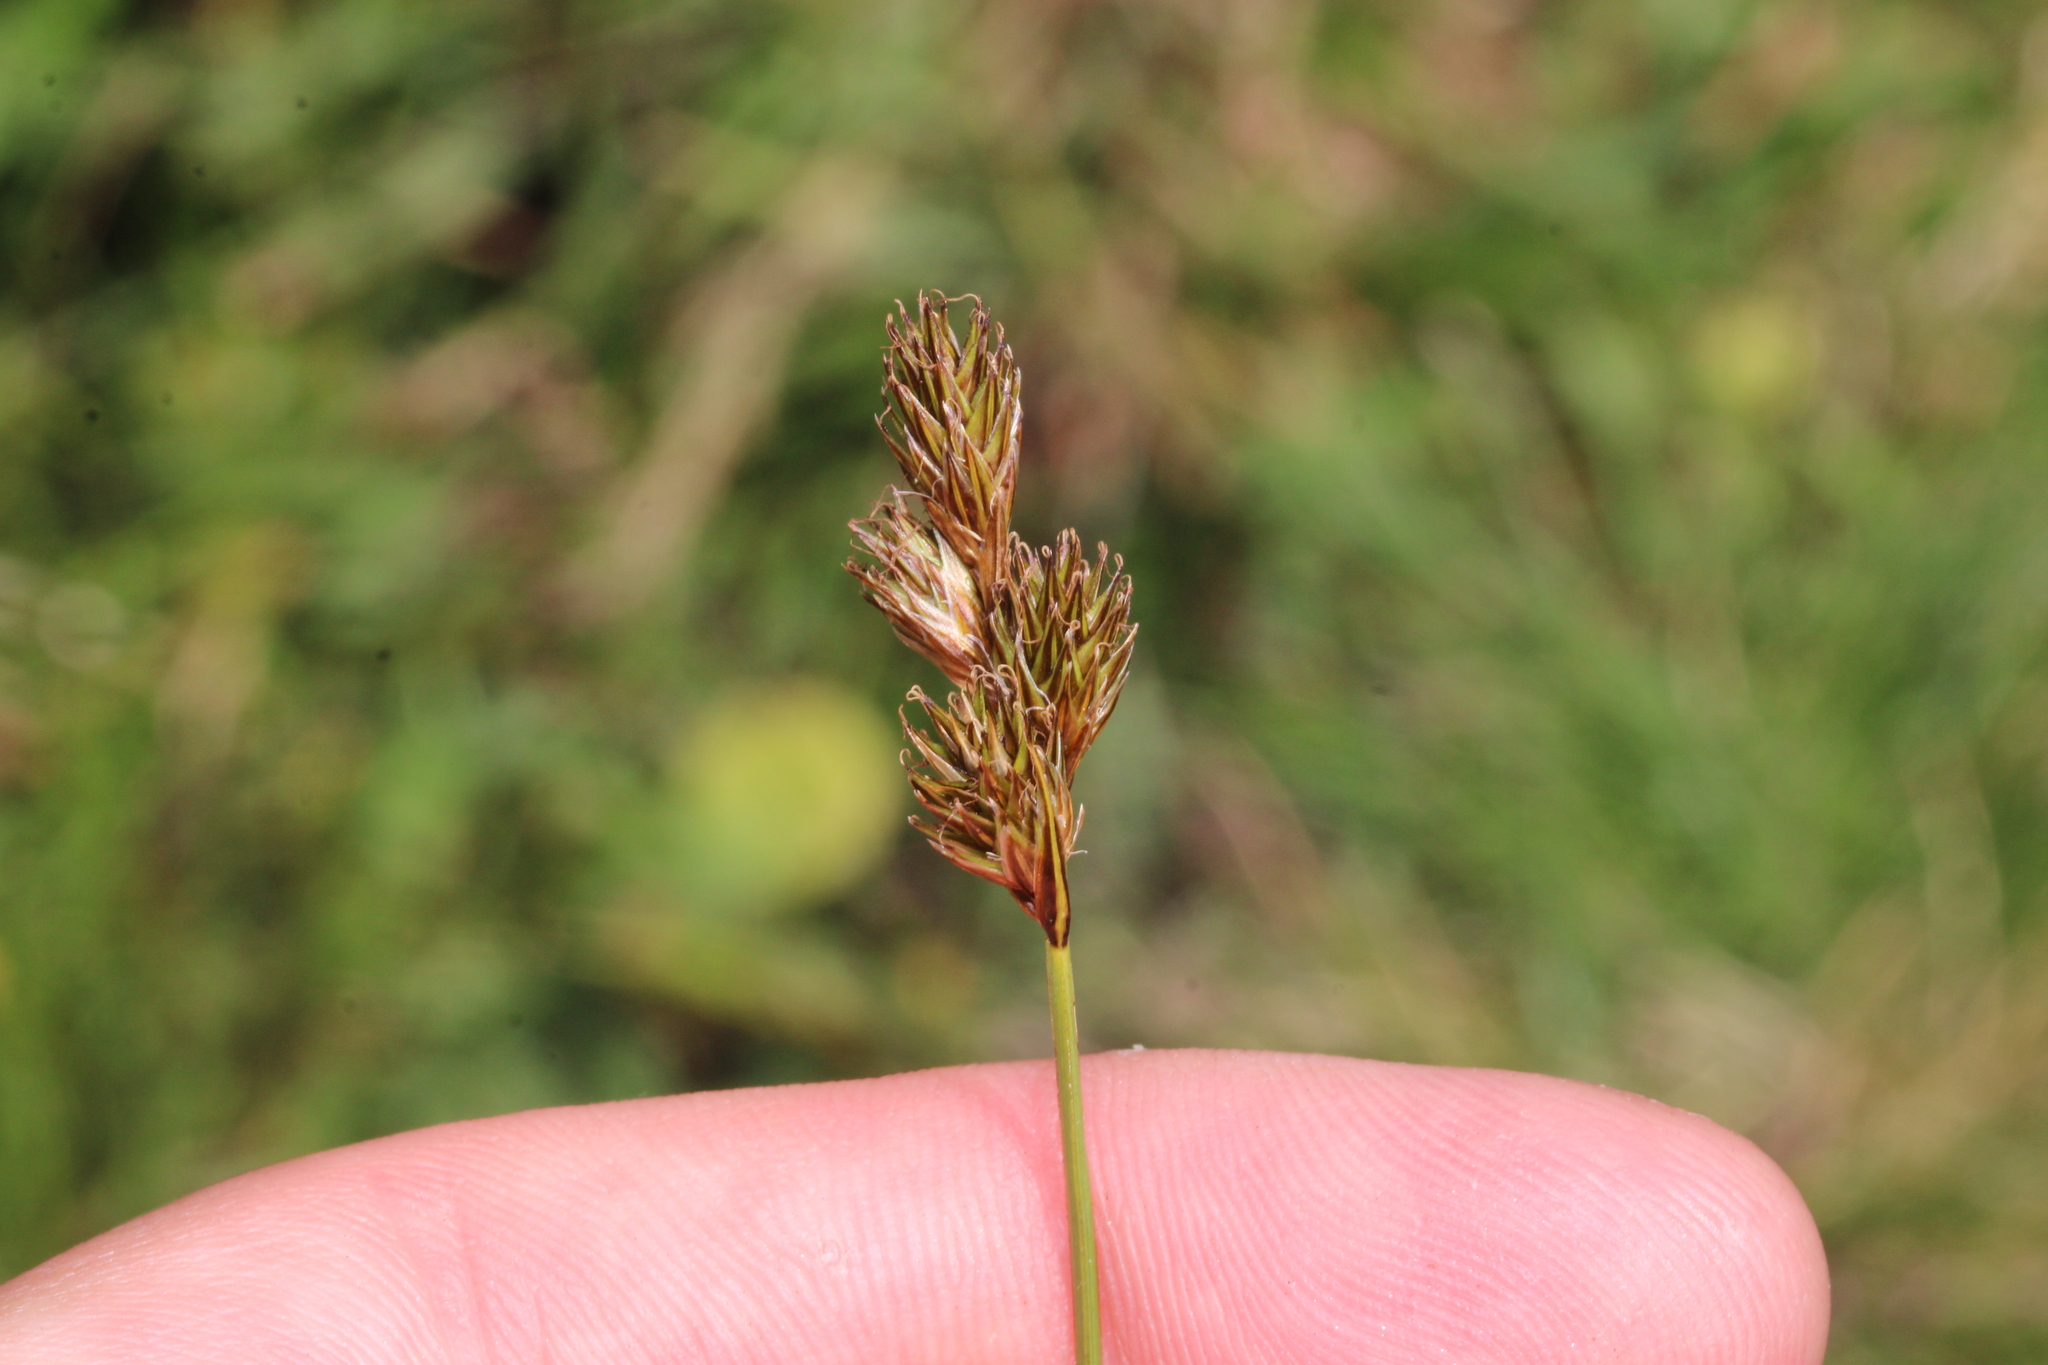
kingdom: Plantae
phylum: Tracheophyta
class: Liliopsida
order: Poales
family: Cyperaceae
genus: Carex
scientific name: Carex leporina
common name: Oval sedge
